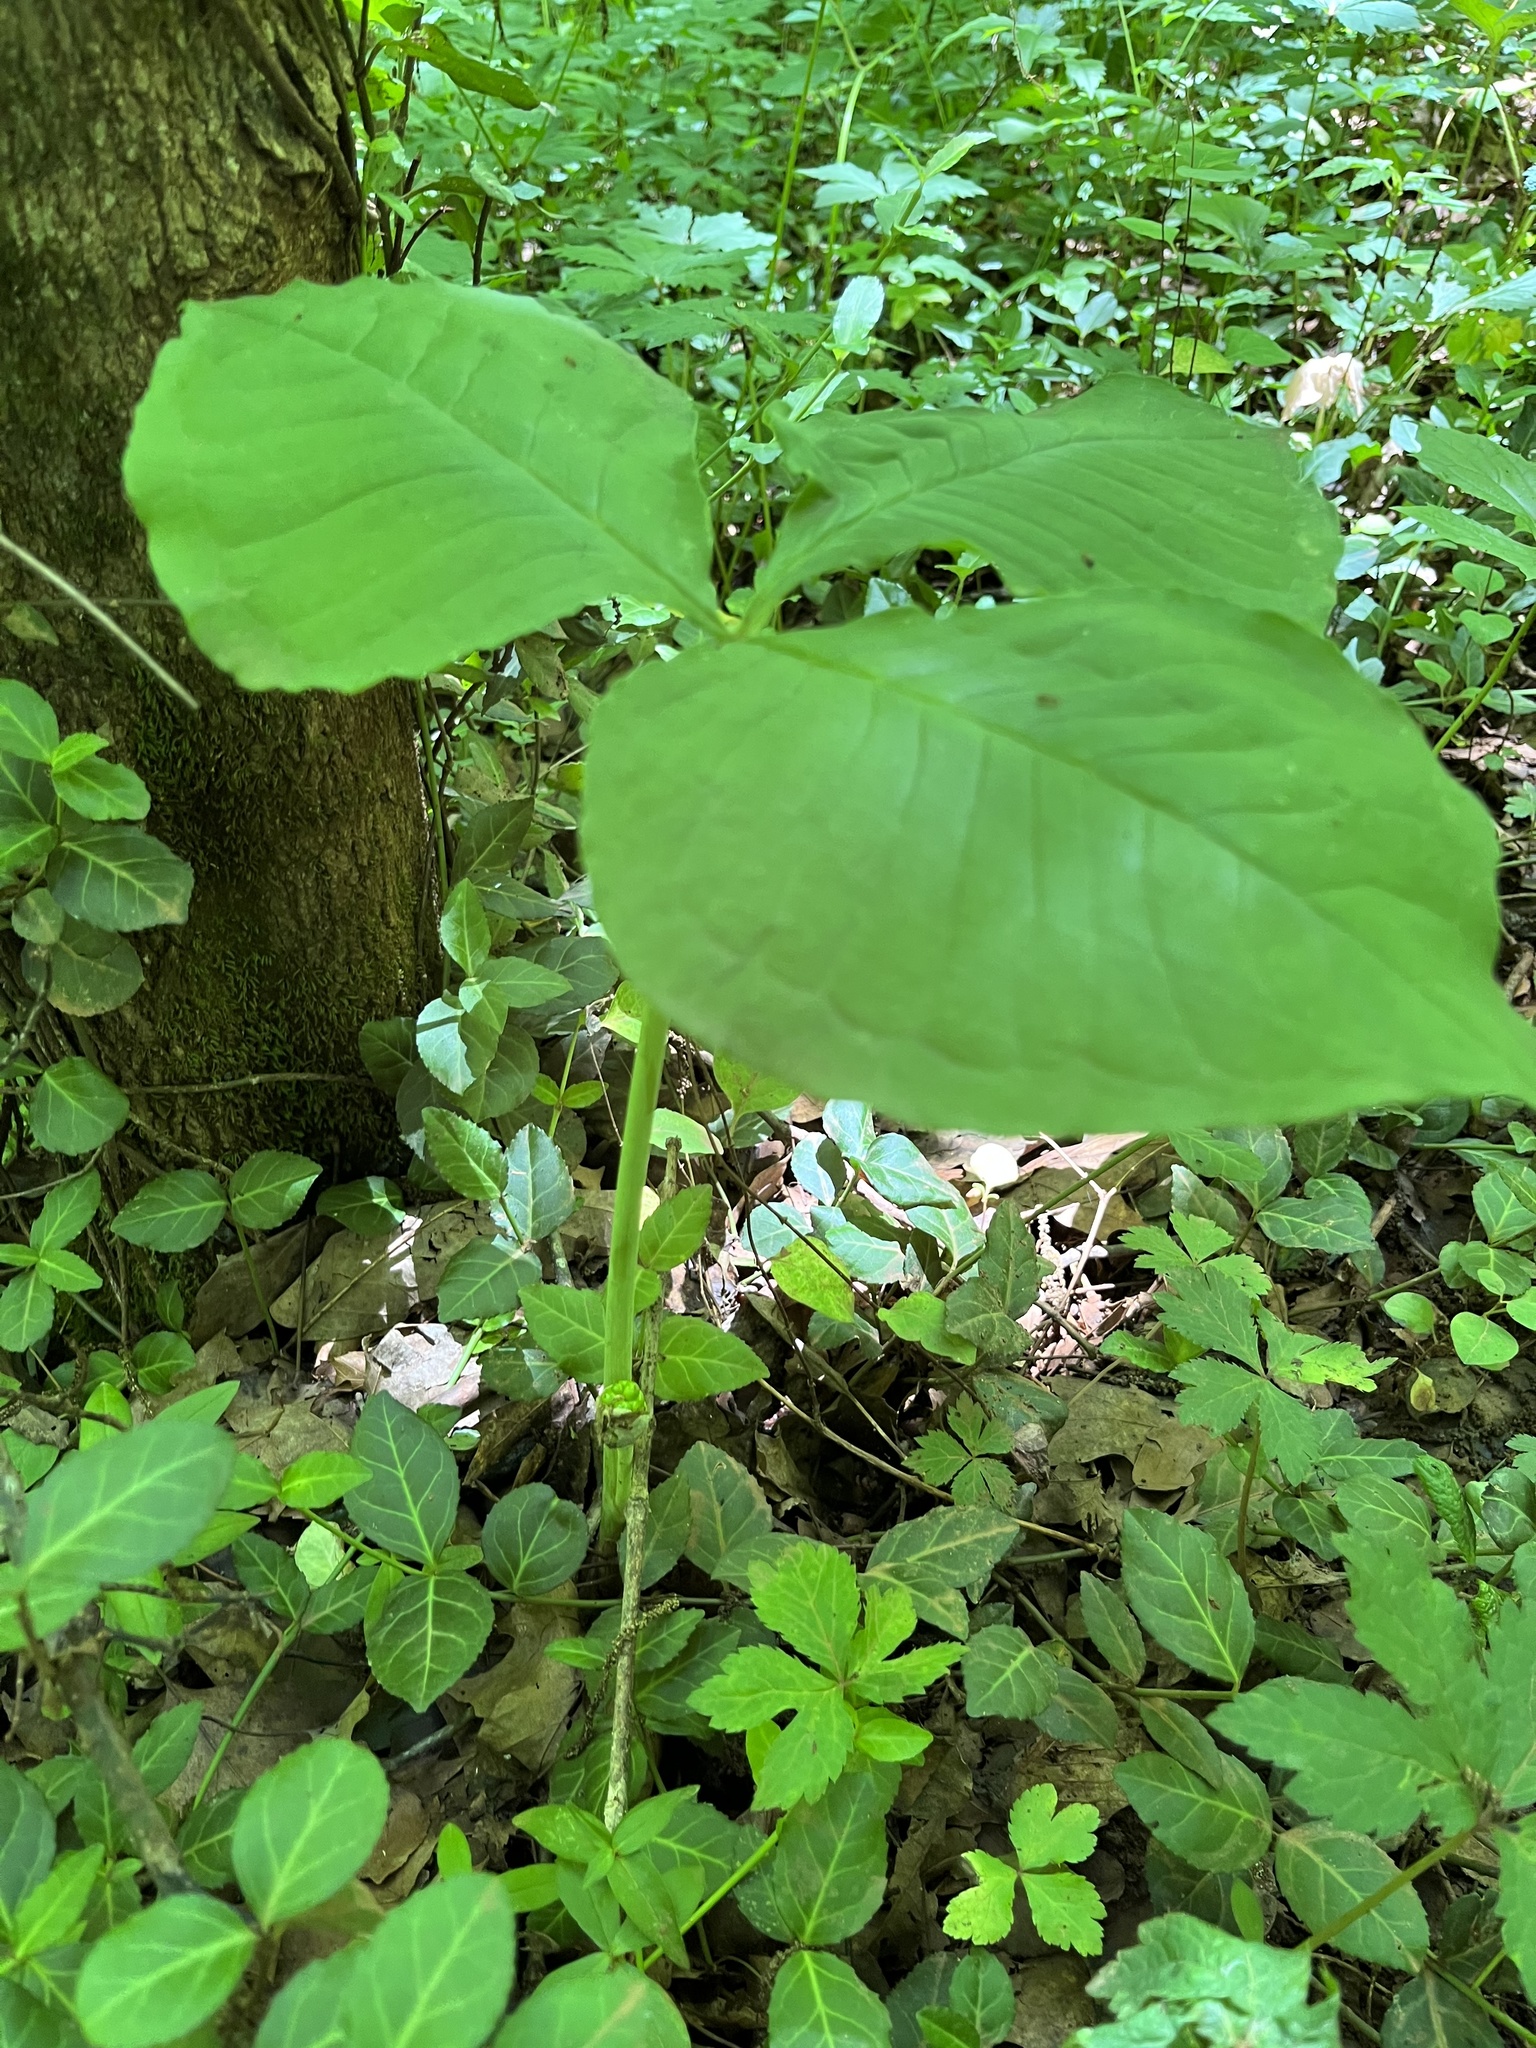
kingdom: Plantae
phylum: Tracheophyta
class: Liliopsida
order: Alismatales
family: Araceae
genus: Arisaema
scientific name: Arisaema triphyllum
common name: Jack-in-the-pulpit
